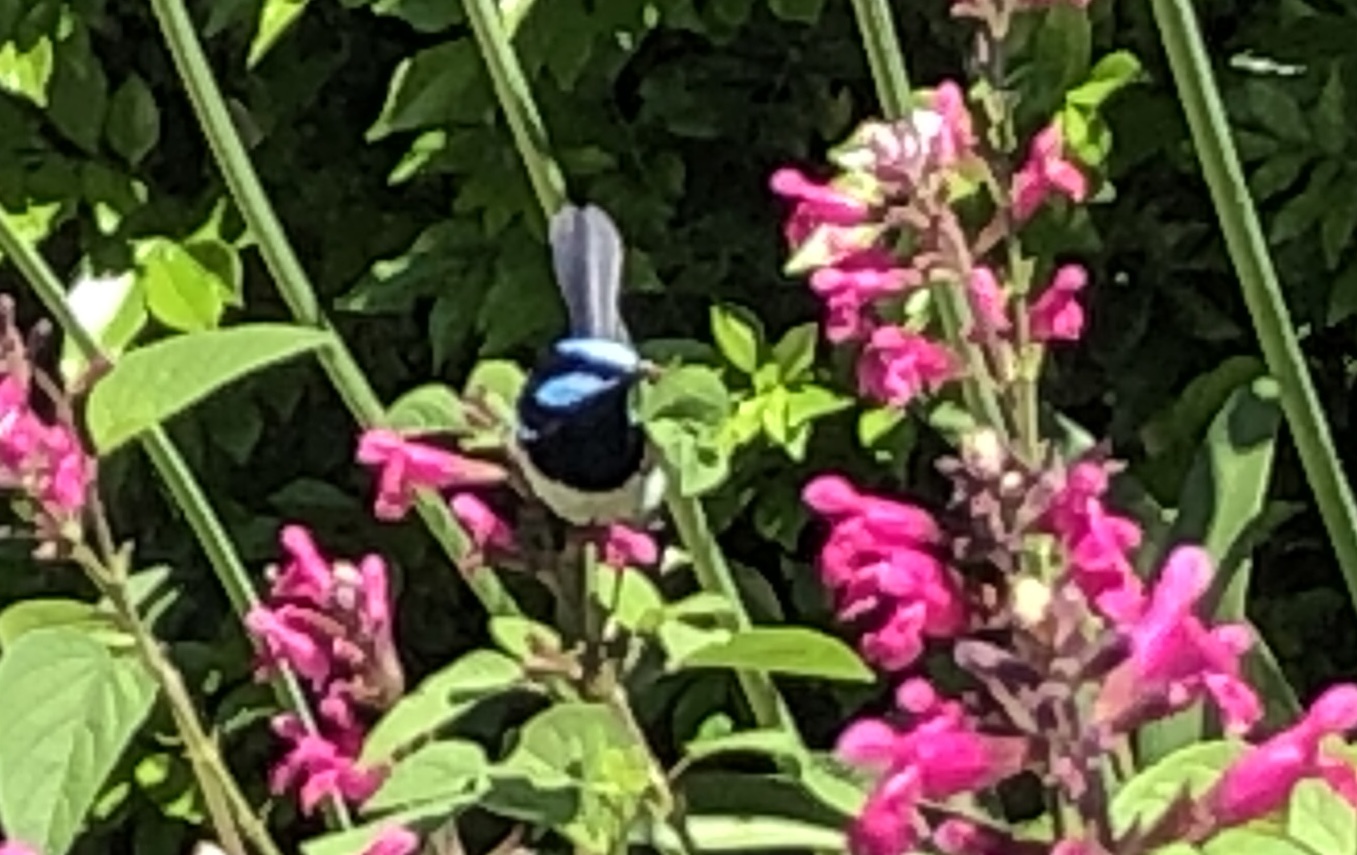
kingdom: Animalia
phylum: Chordata
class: Aves
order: Passeriformes
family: Maluridae
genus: Malurus
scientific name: Malurus cyaneus
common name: Superb fairywren
